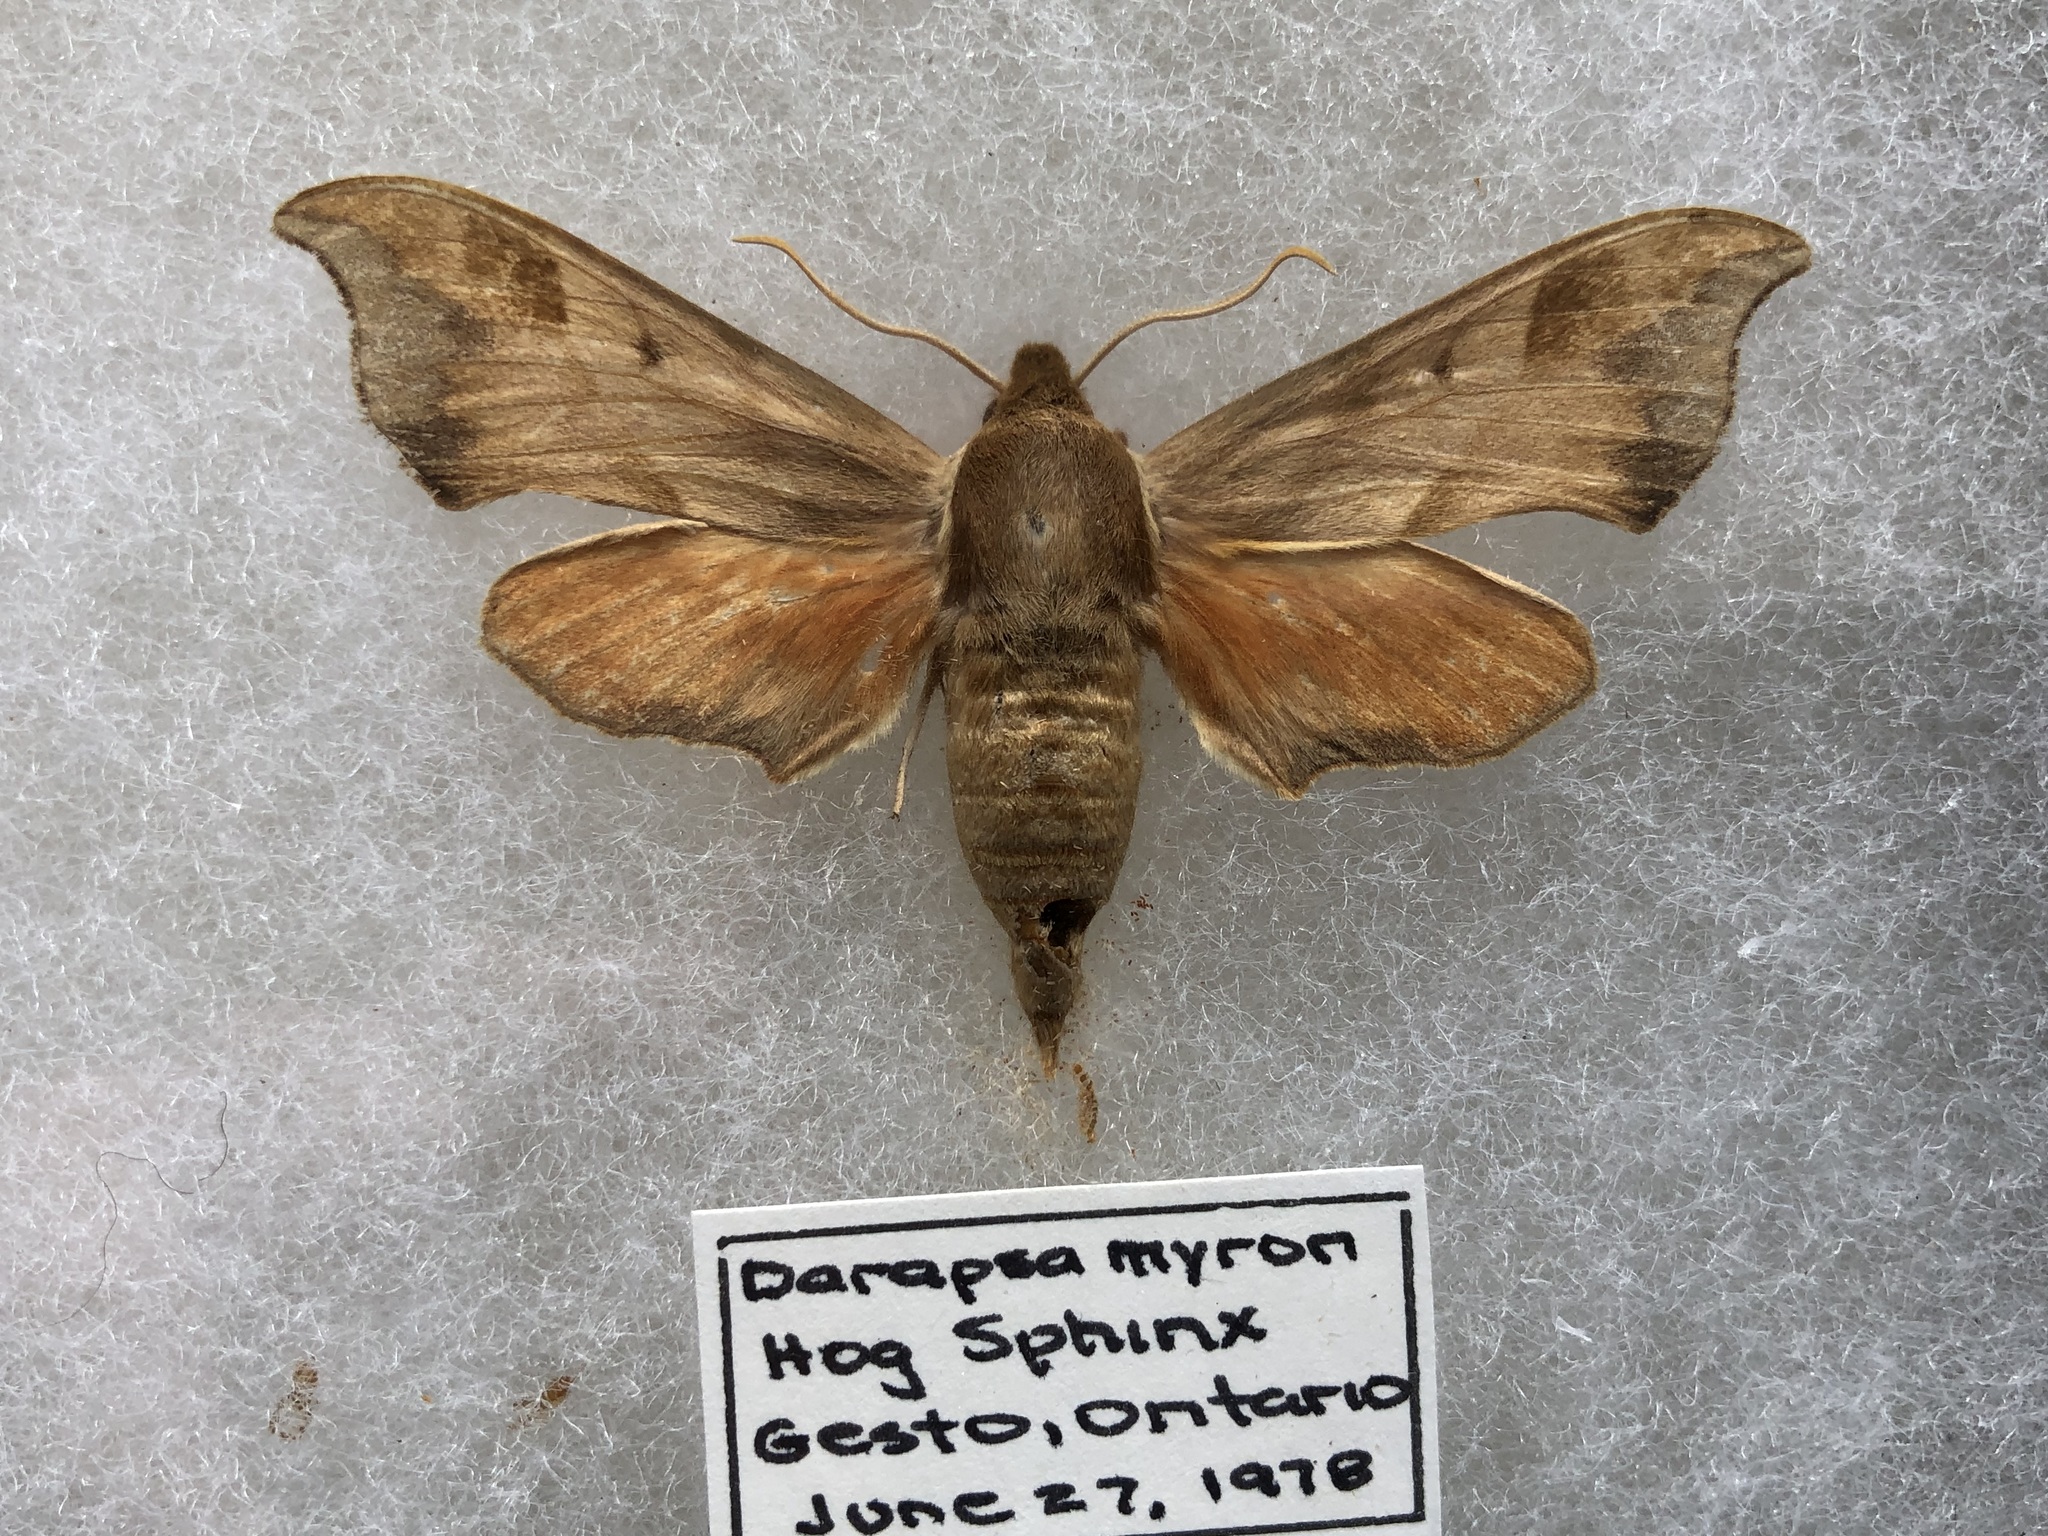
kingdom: Animalia
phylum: Arthropoda
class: Insecta
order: Lepidoptera
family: Sphingidae
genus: Darapsa
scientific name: Darapsa myron
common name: Hog sphinx
